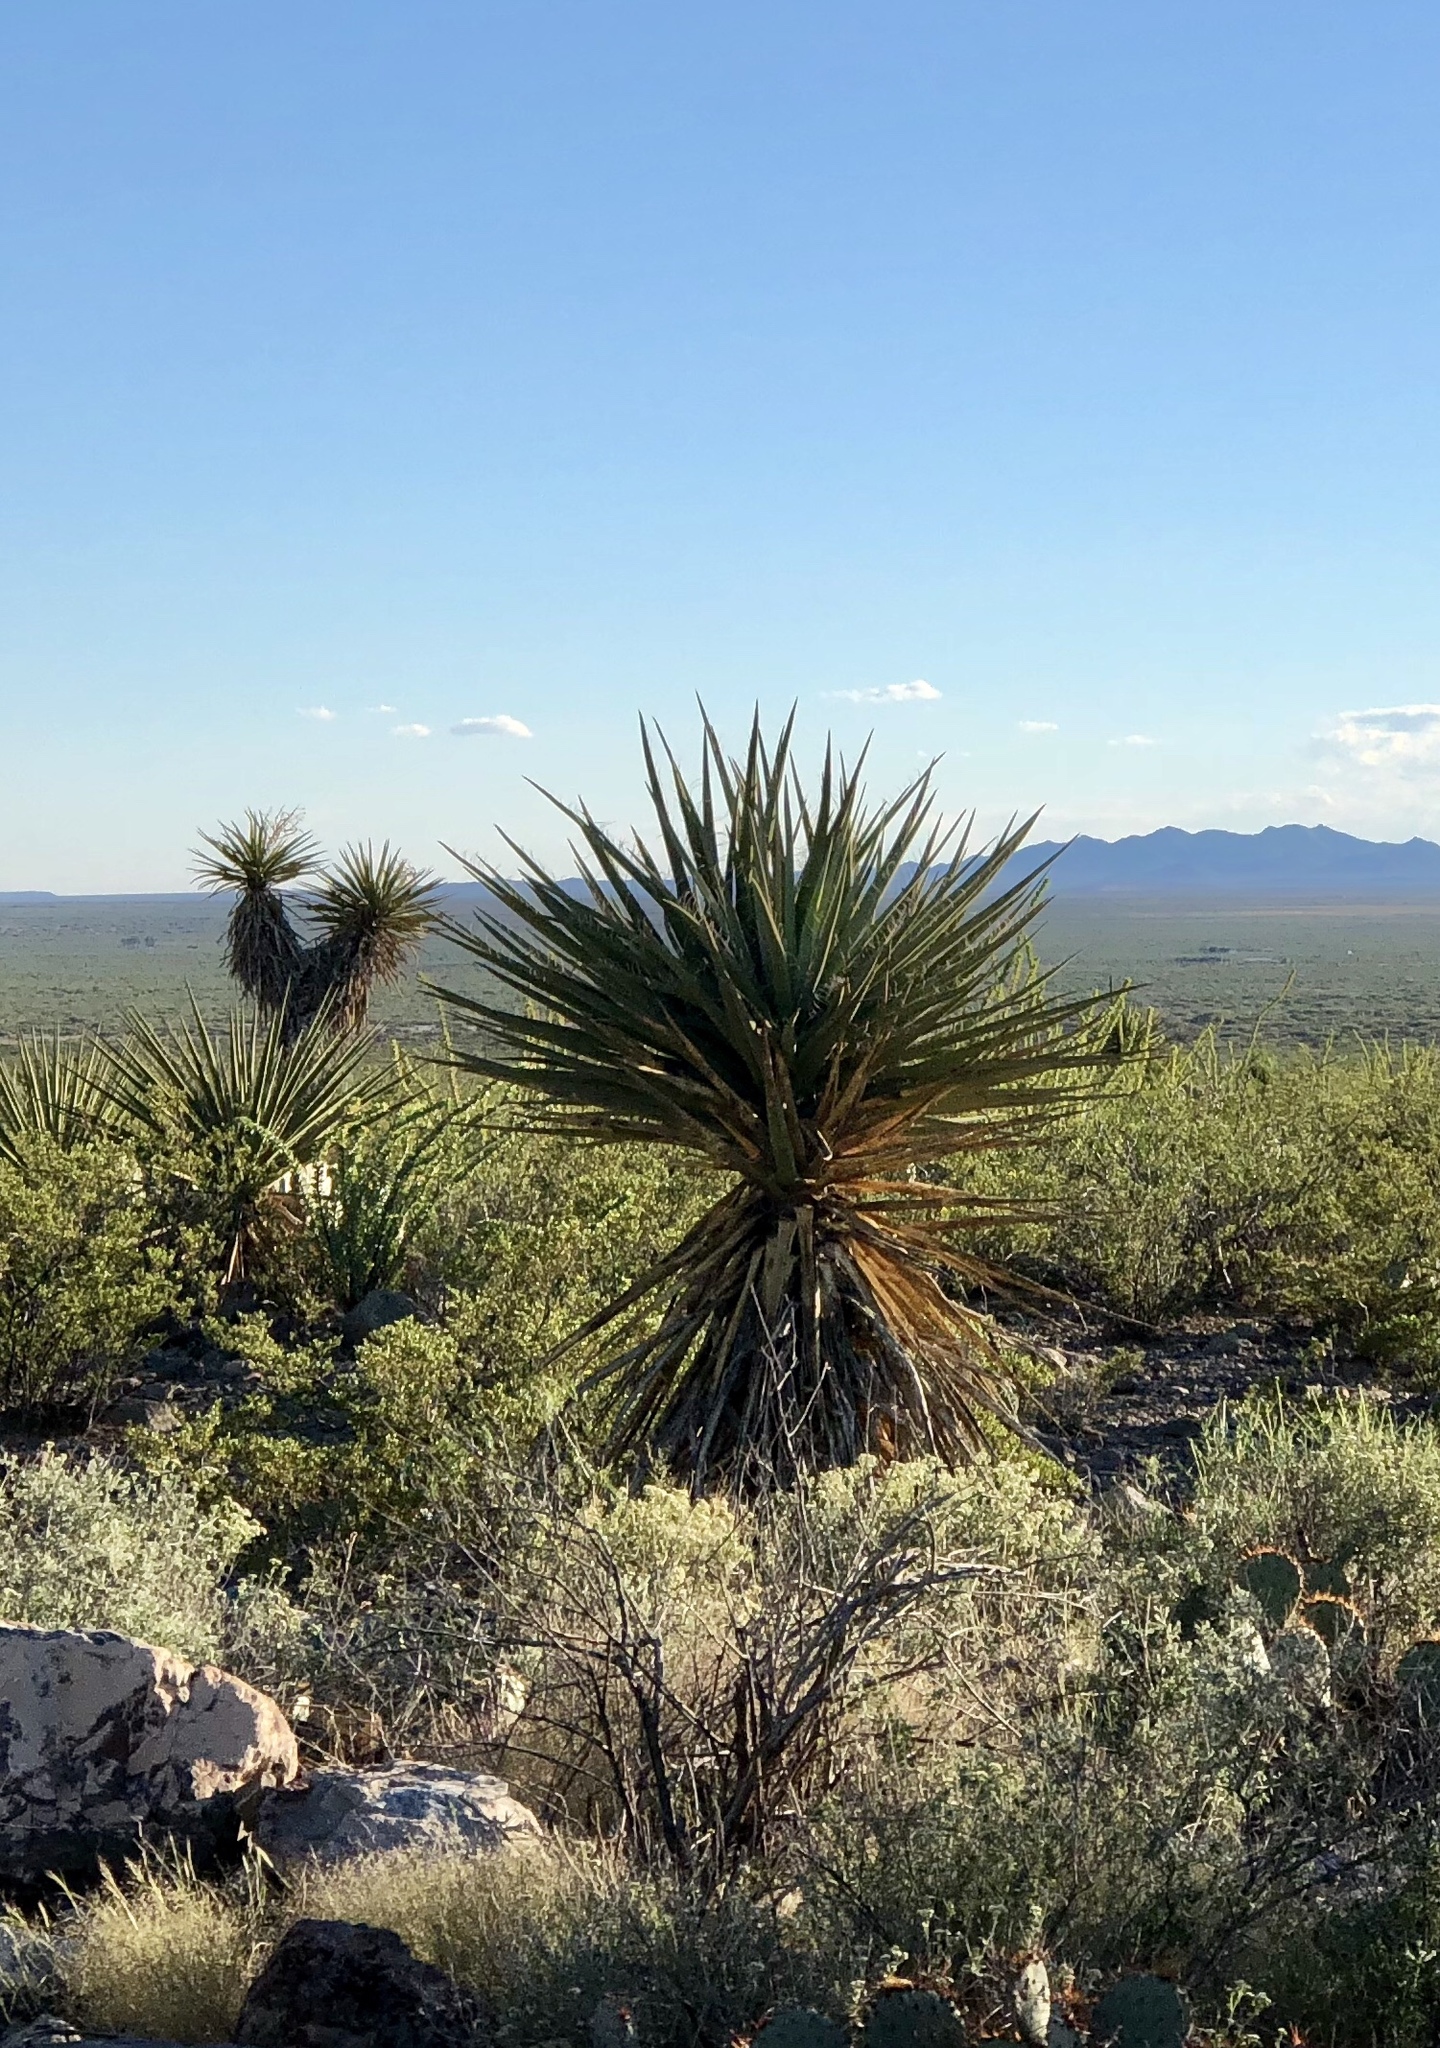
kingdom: Plantae
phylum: Tracheophyta
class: Liliopsida
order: Asparagales
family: Asparagaceae
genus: Yucca
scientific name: Yucca treculiana
